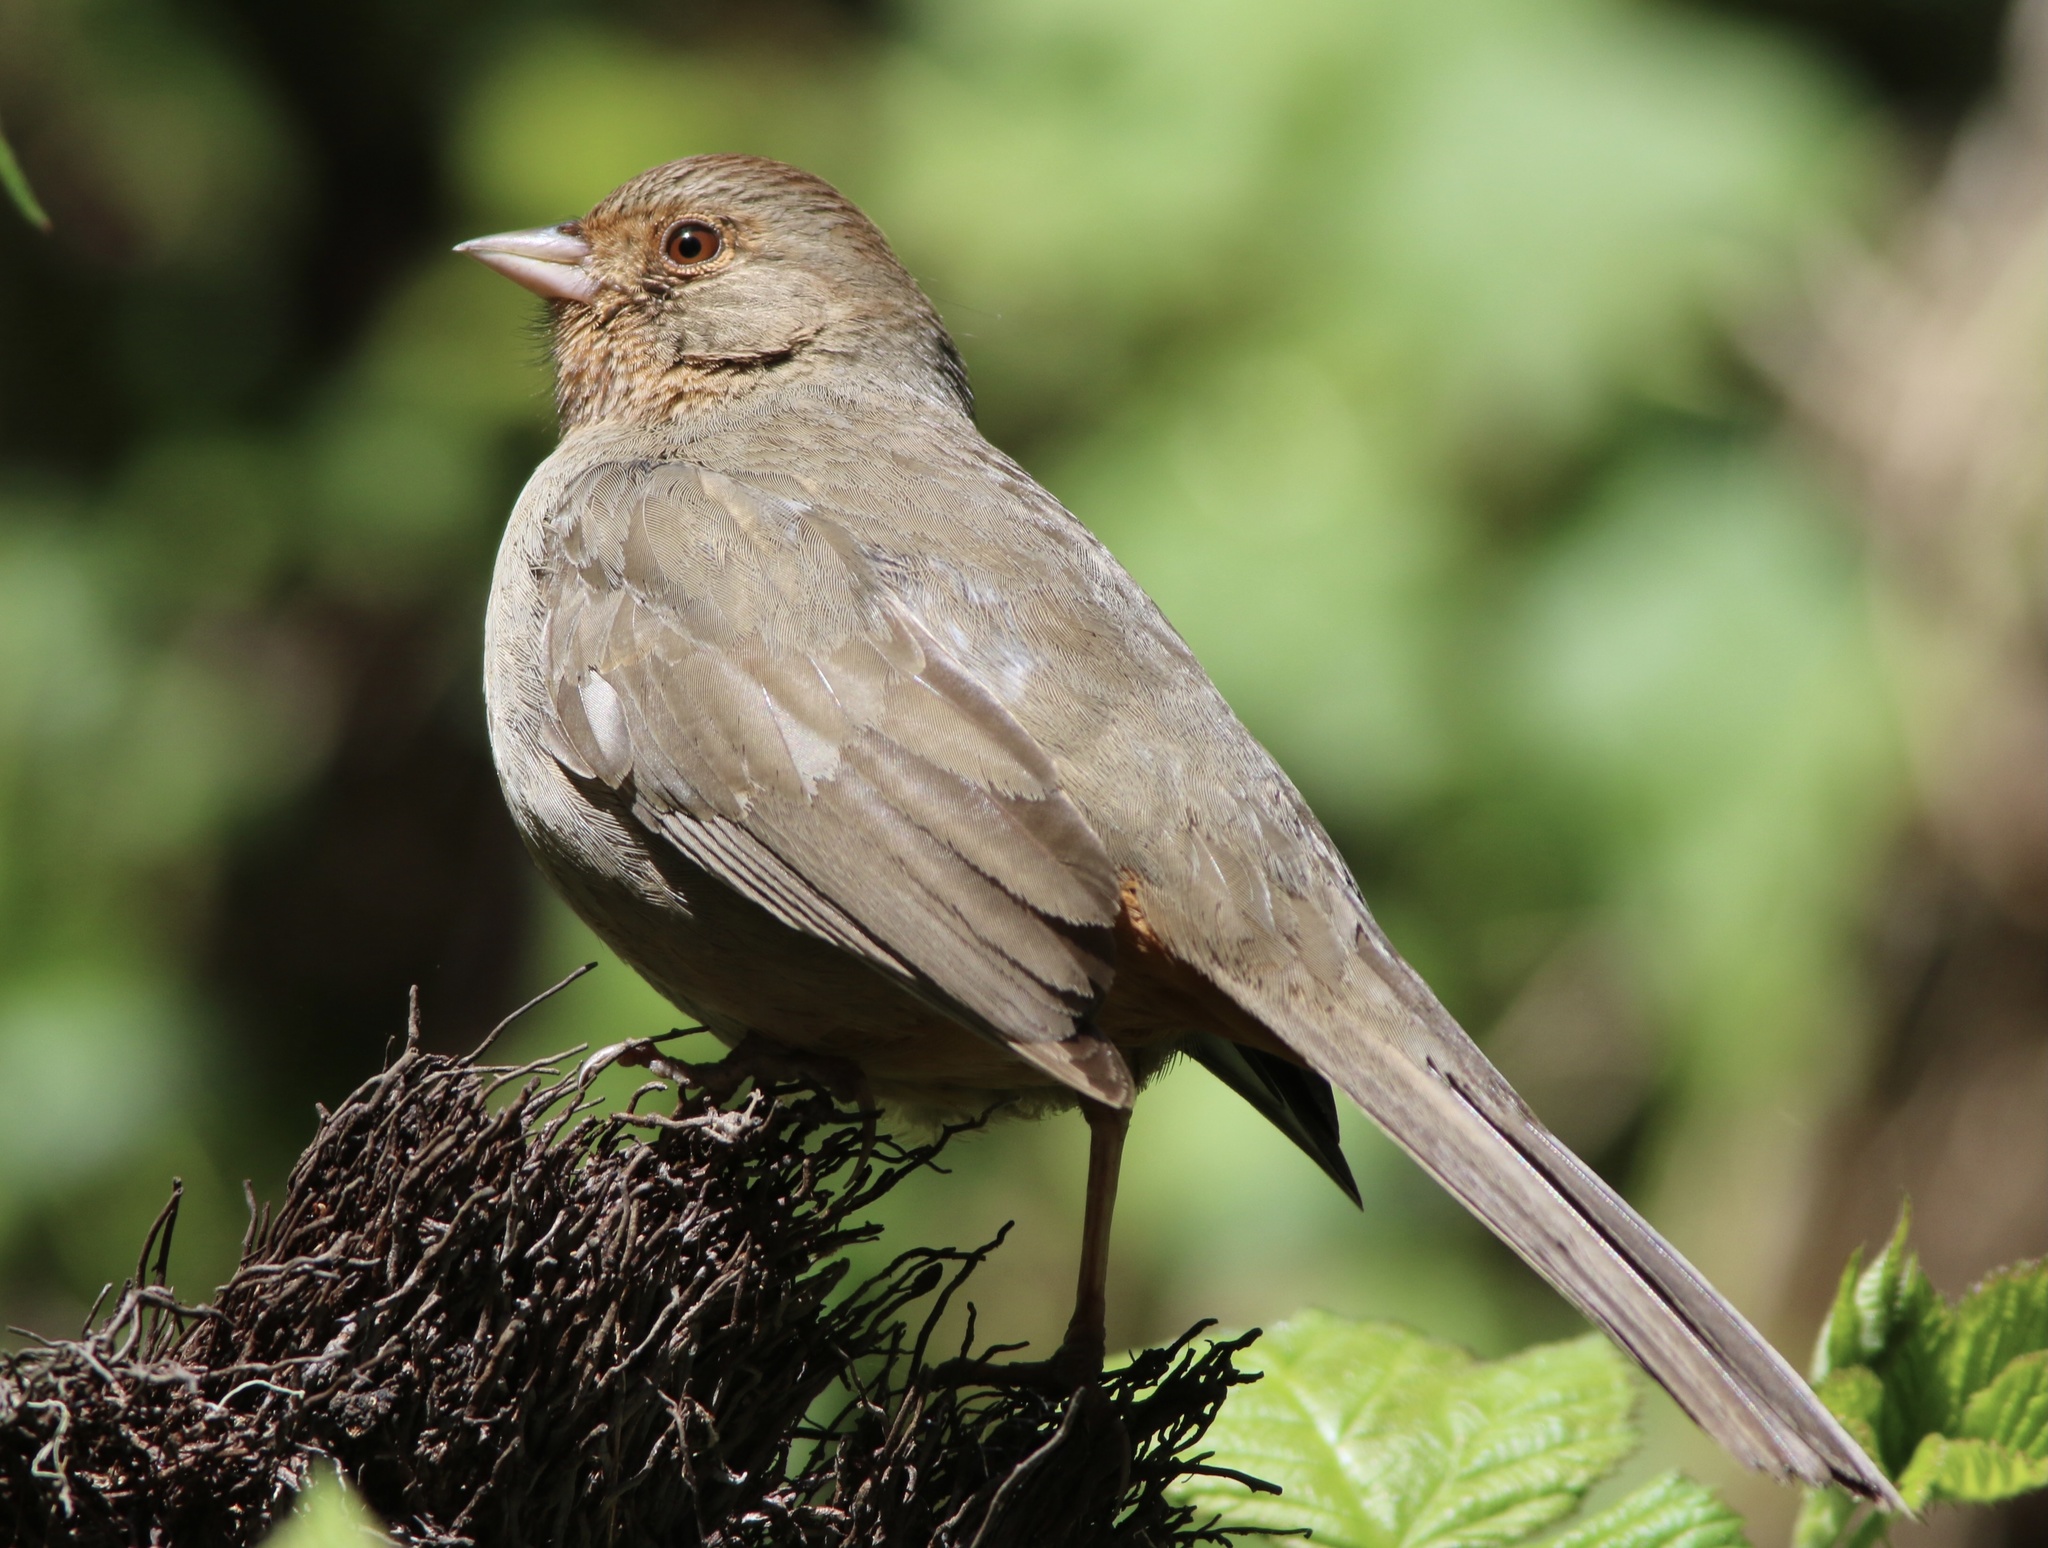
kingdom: Animalia
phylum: Chordata
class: Aves
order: Passeriformes
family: Passerellidae
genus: Melozone
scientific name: Melozone crissalis
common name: California towhee
